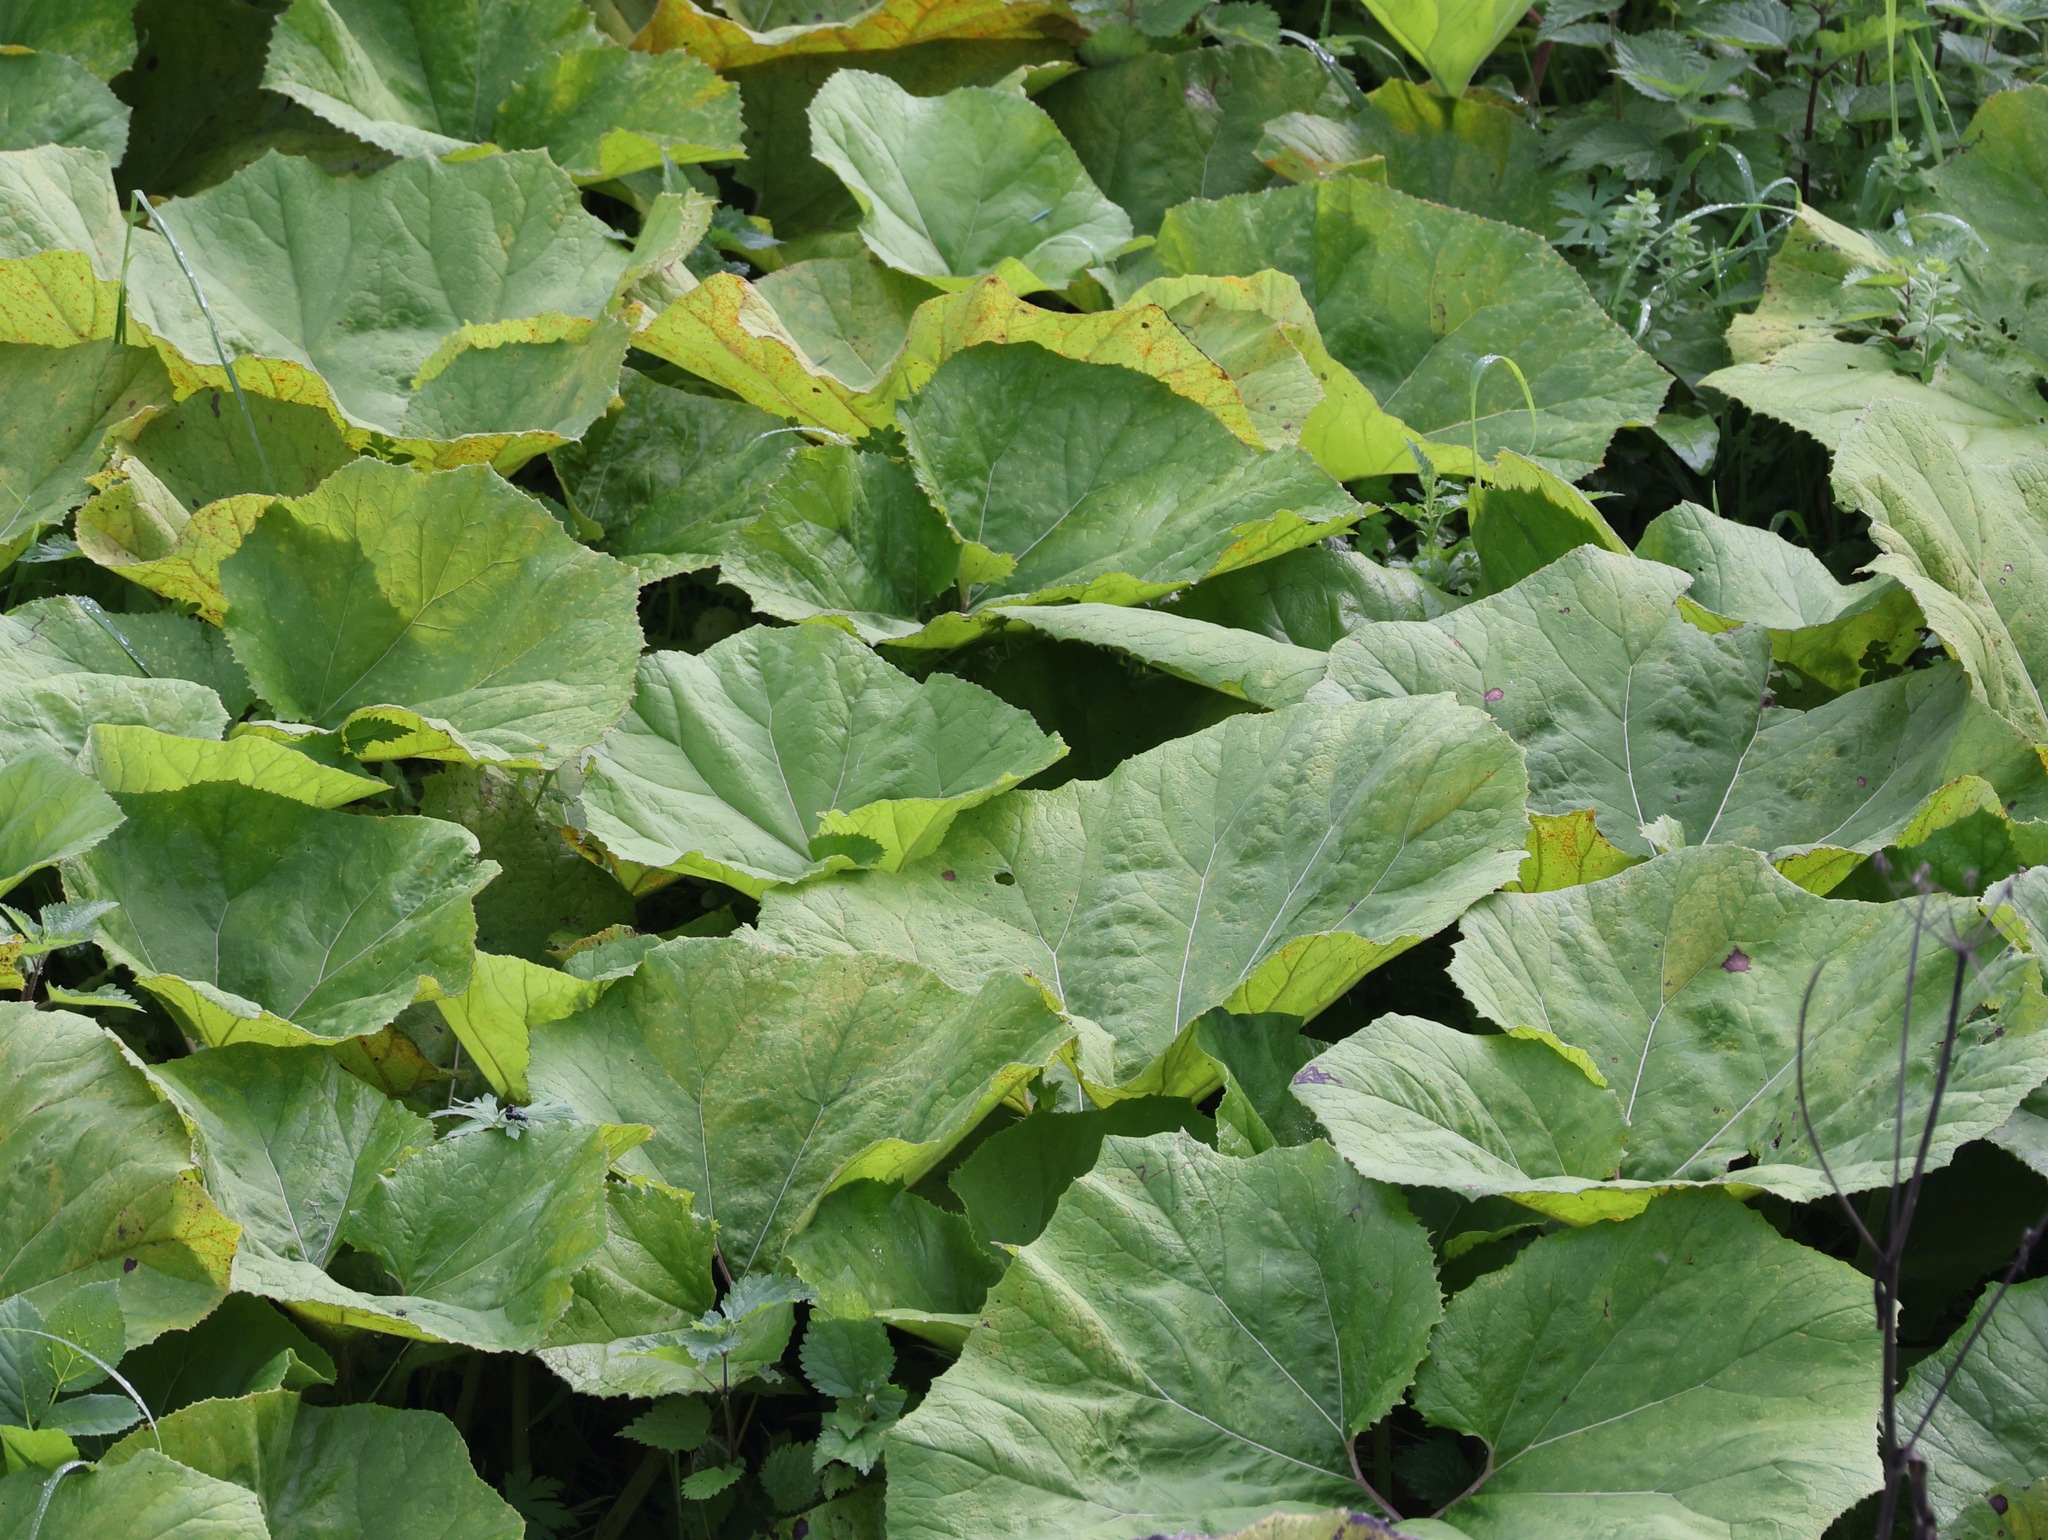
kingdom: Plantae
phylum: Tracheophyta
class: Magnoliopsida
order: Asterales
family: Asteraceae
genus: Petasites
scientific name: Petasites hybridus
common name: Butterbur
